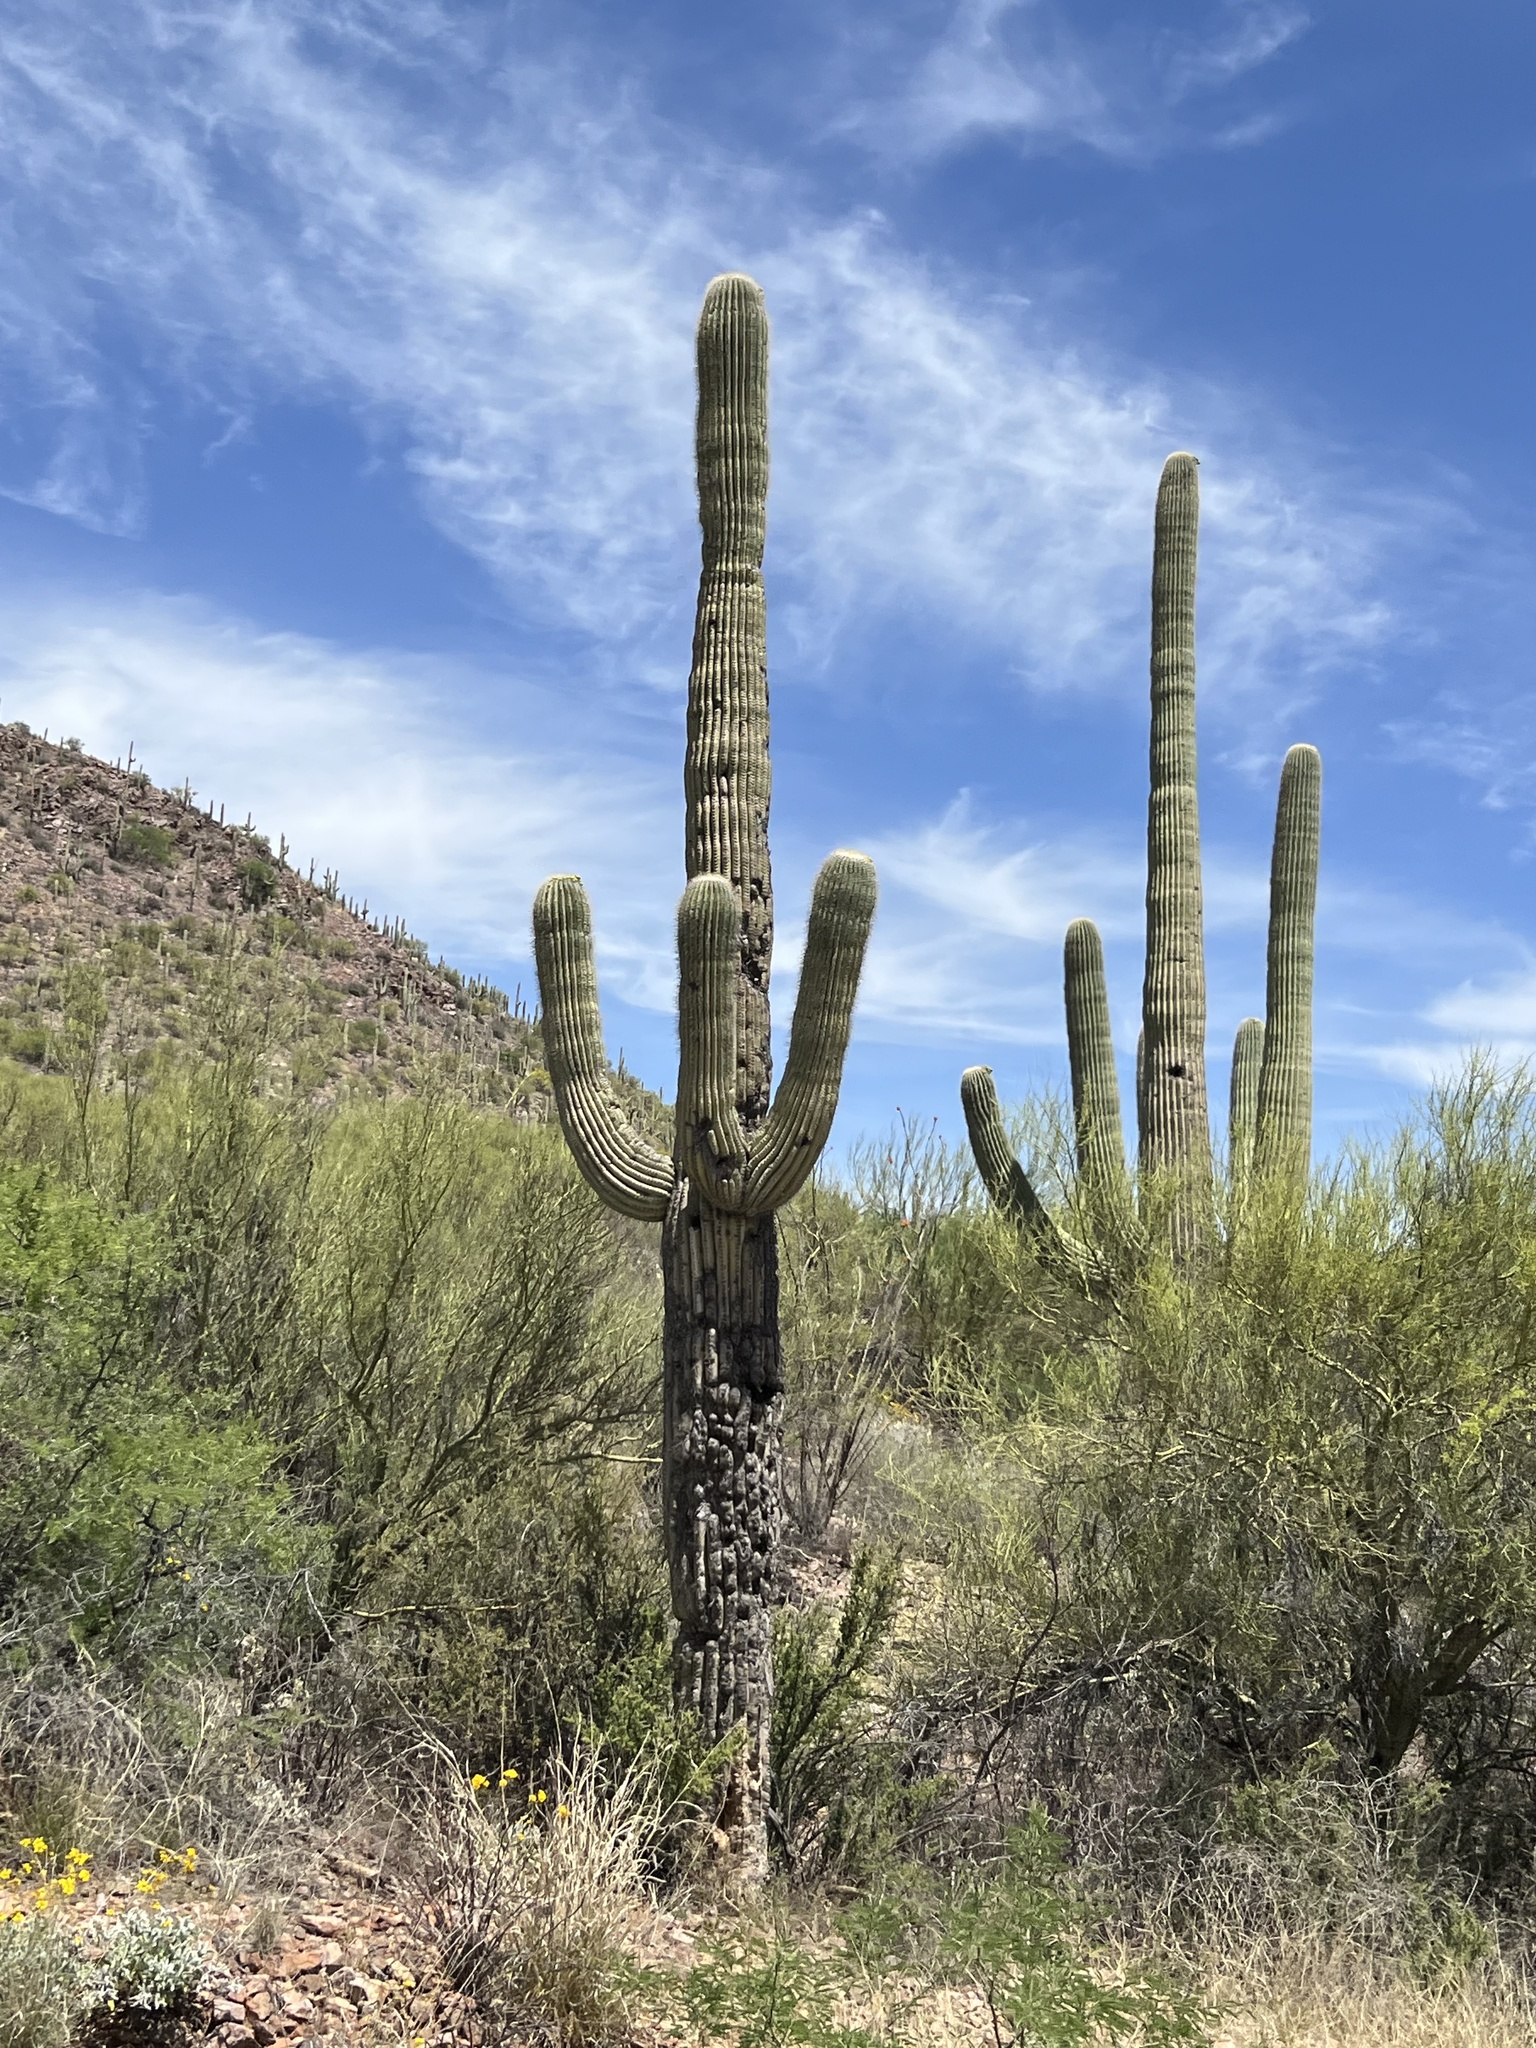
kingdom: Plantae
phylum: Tracheophyta
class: Magnoliopsida
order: Caryophyllales
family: Cactaceae
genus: Carnegiea
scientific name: Carnegiea gigantea
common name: Saguaro
